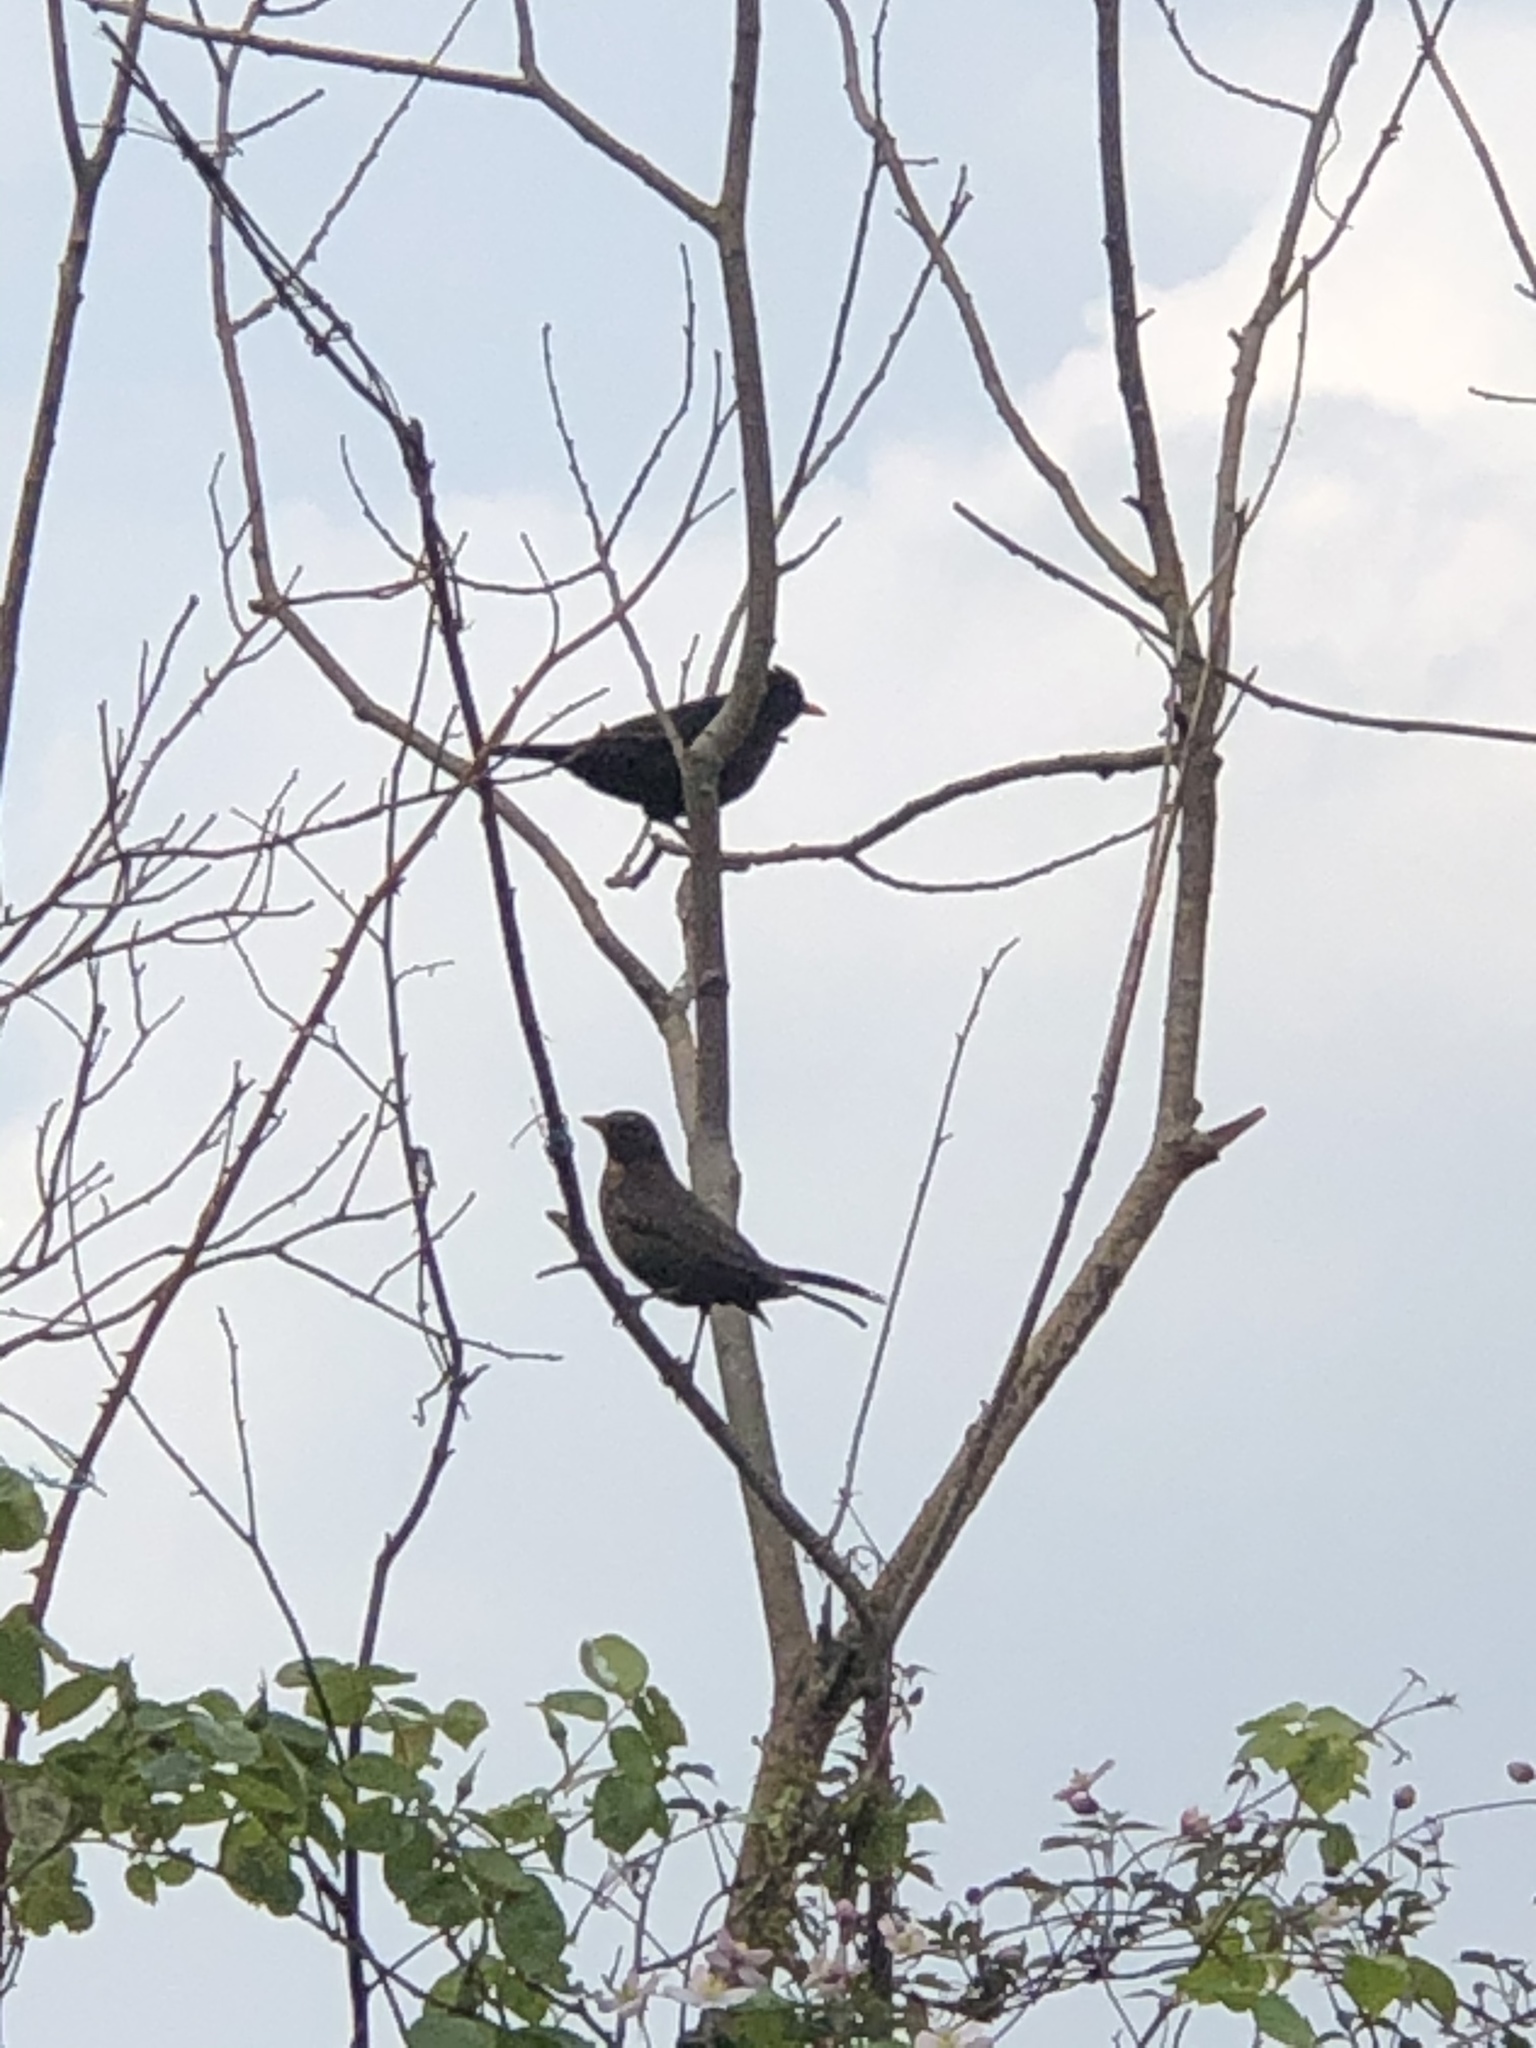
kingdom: Animalia
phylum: Chordata
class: Aves
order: Passeriformes
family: Turdidae
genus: Turdus
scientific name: Turdus merula
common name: Common blackbird
